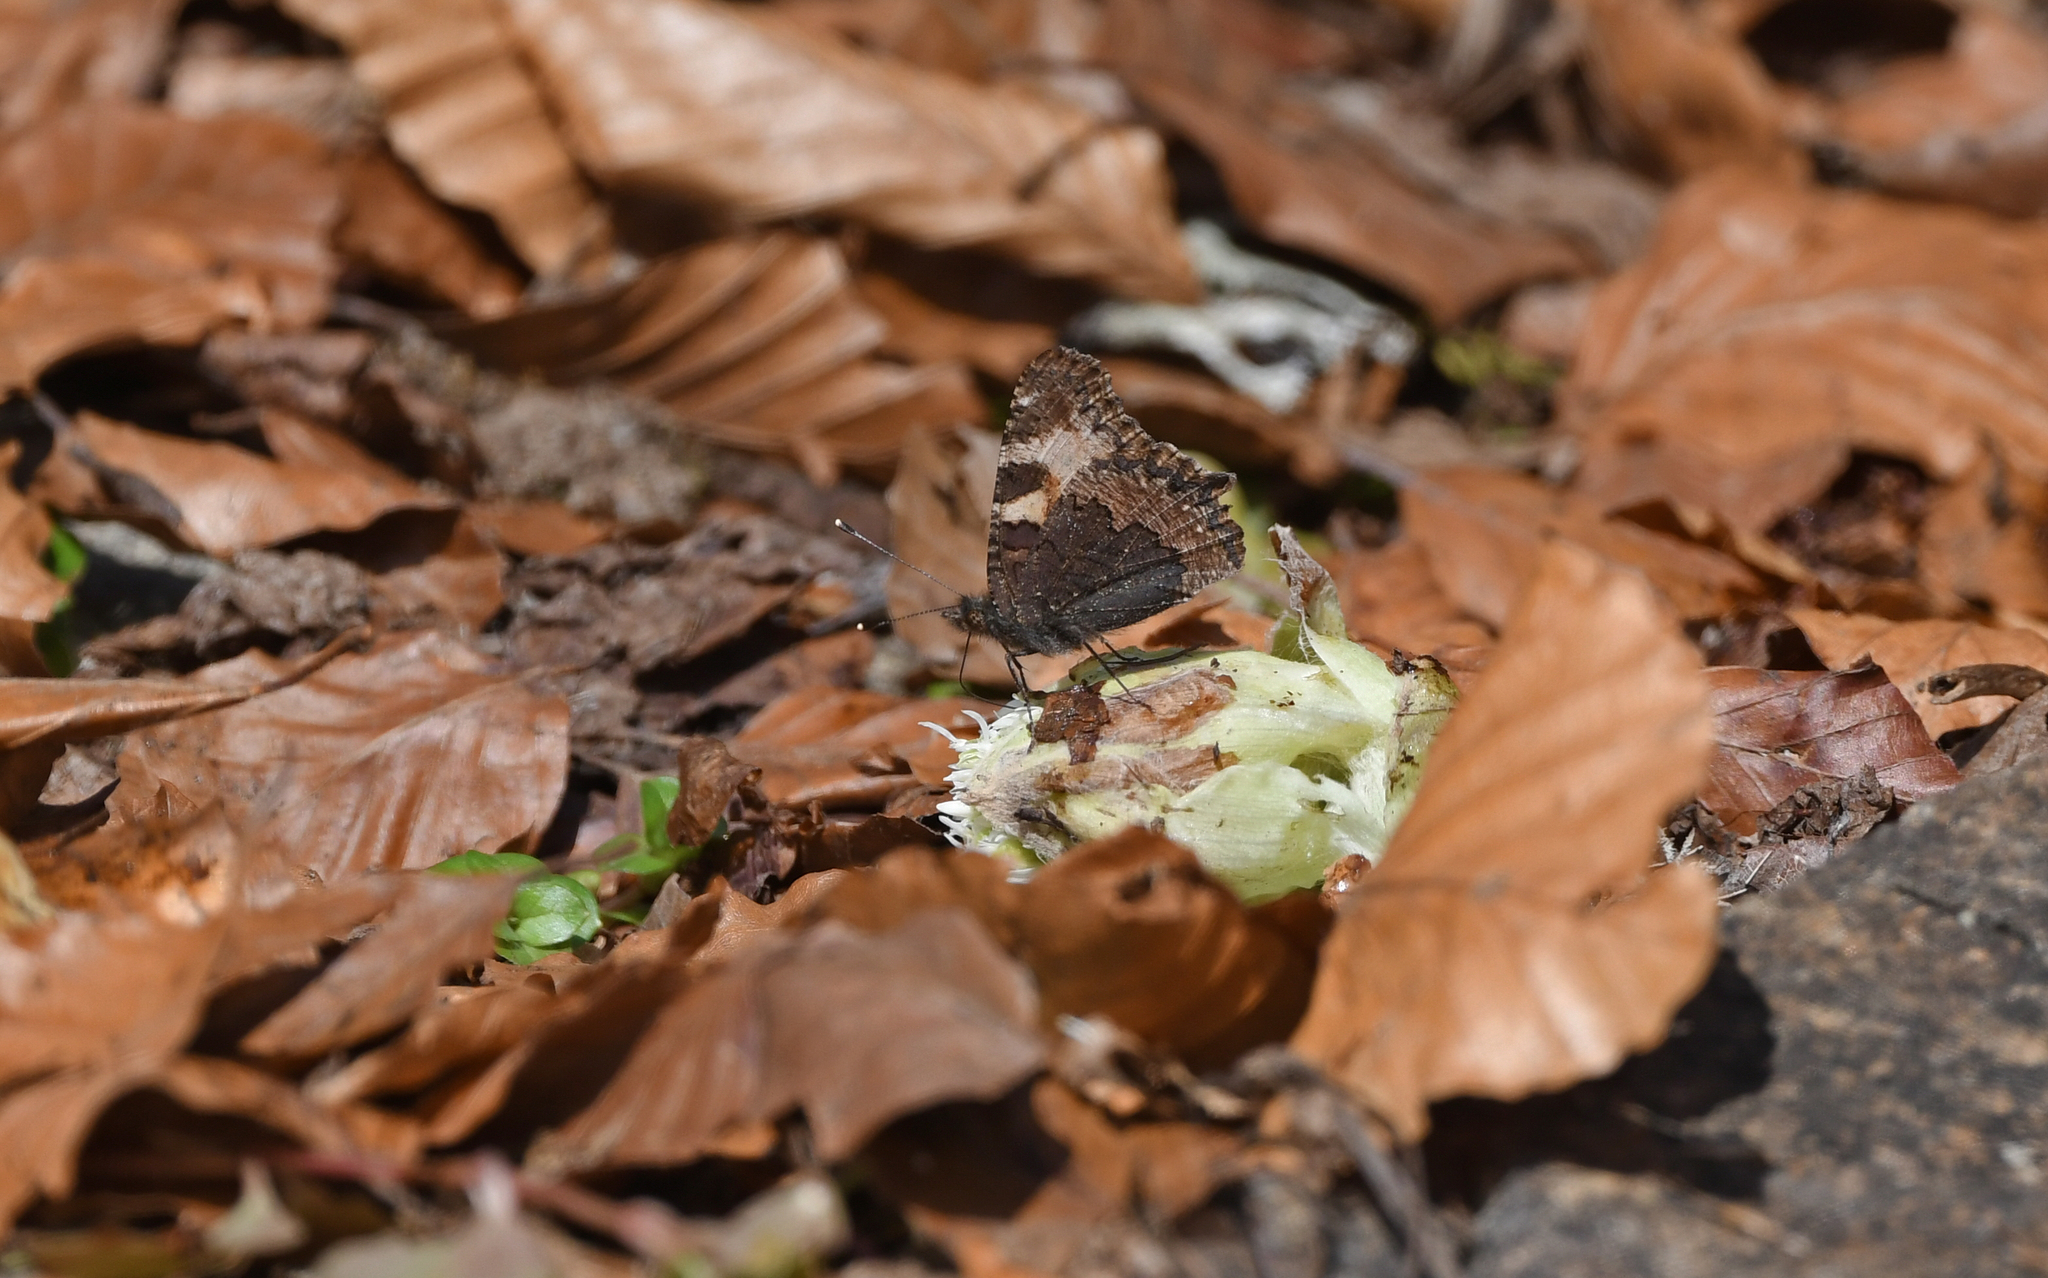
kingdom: Animalia
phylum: Arthropoda
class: Insecta
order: Lepidoptera
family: Nymphalidae
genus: Aglais
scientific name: Aglais urticae
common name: Small tortoiseshell
